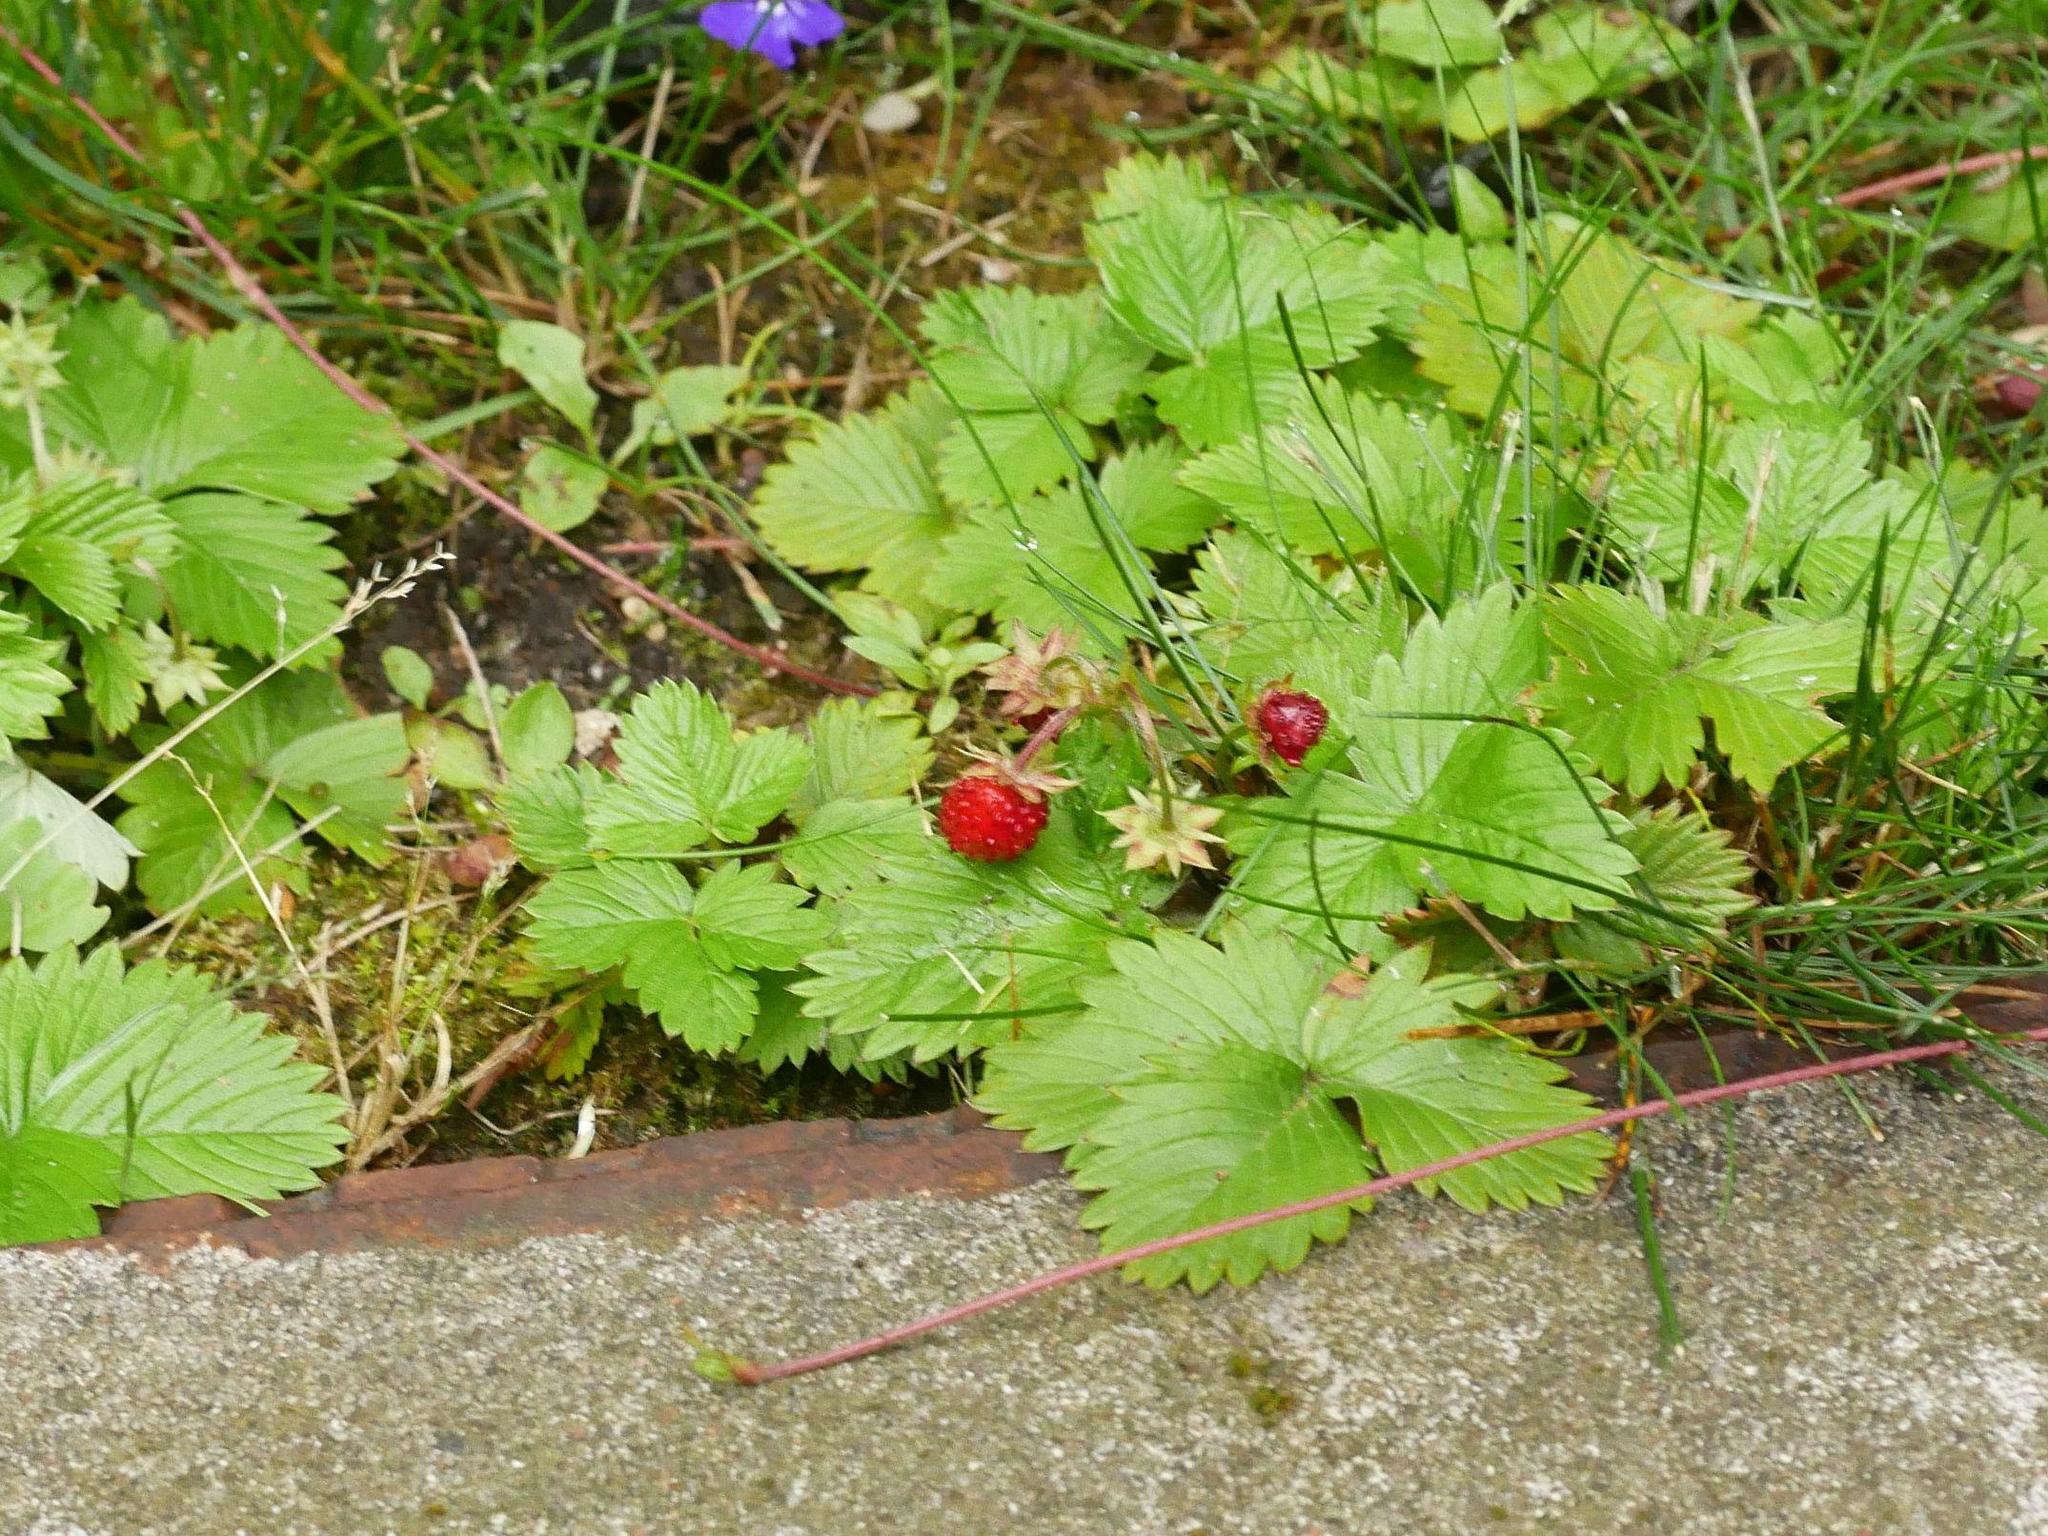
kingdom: Plantae
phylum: Tracheophyta
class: Magnoliopsida
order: Rosales
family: Rosaceae
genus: Fragaria
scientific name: Fragaria vesca
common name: Wild strawberry
